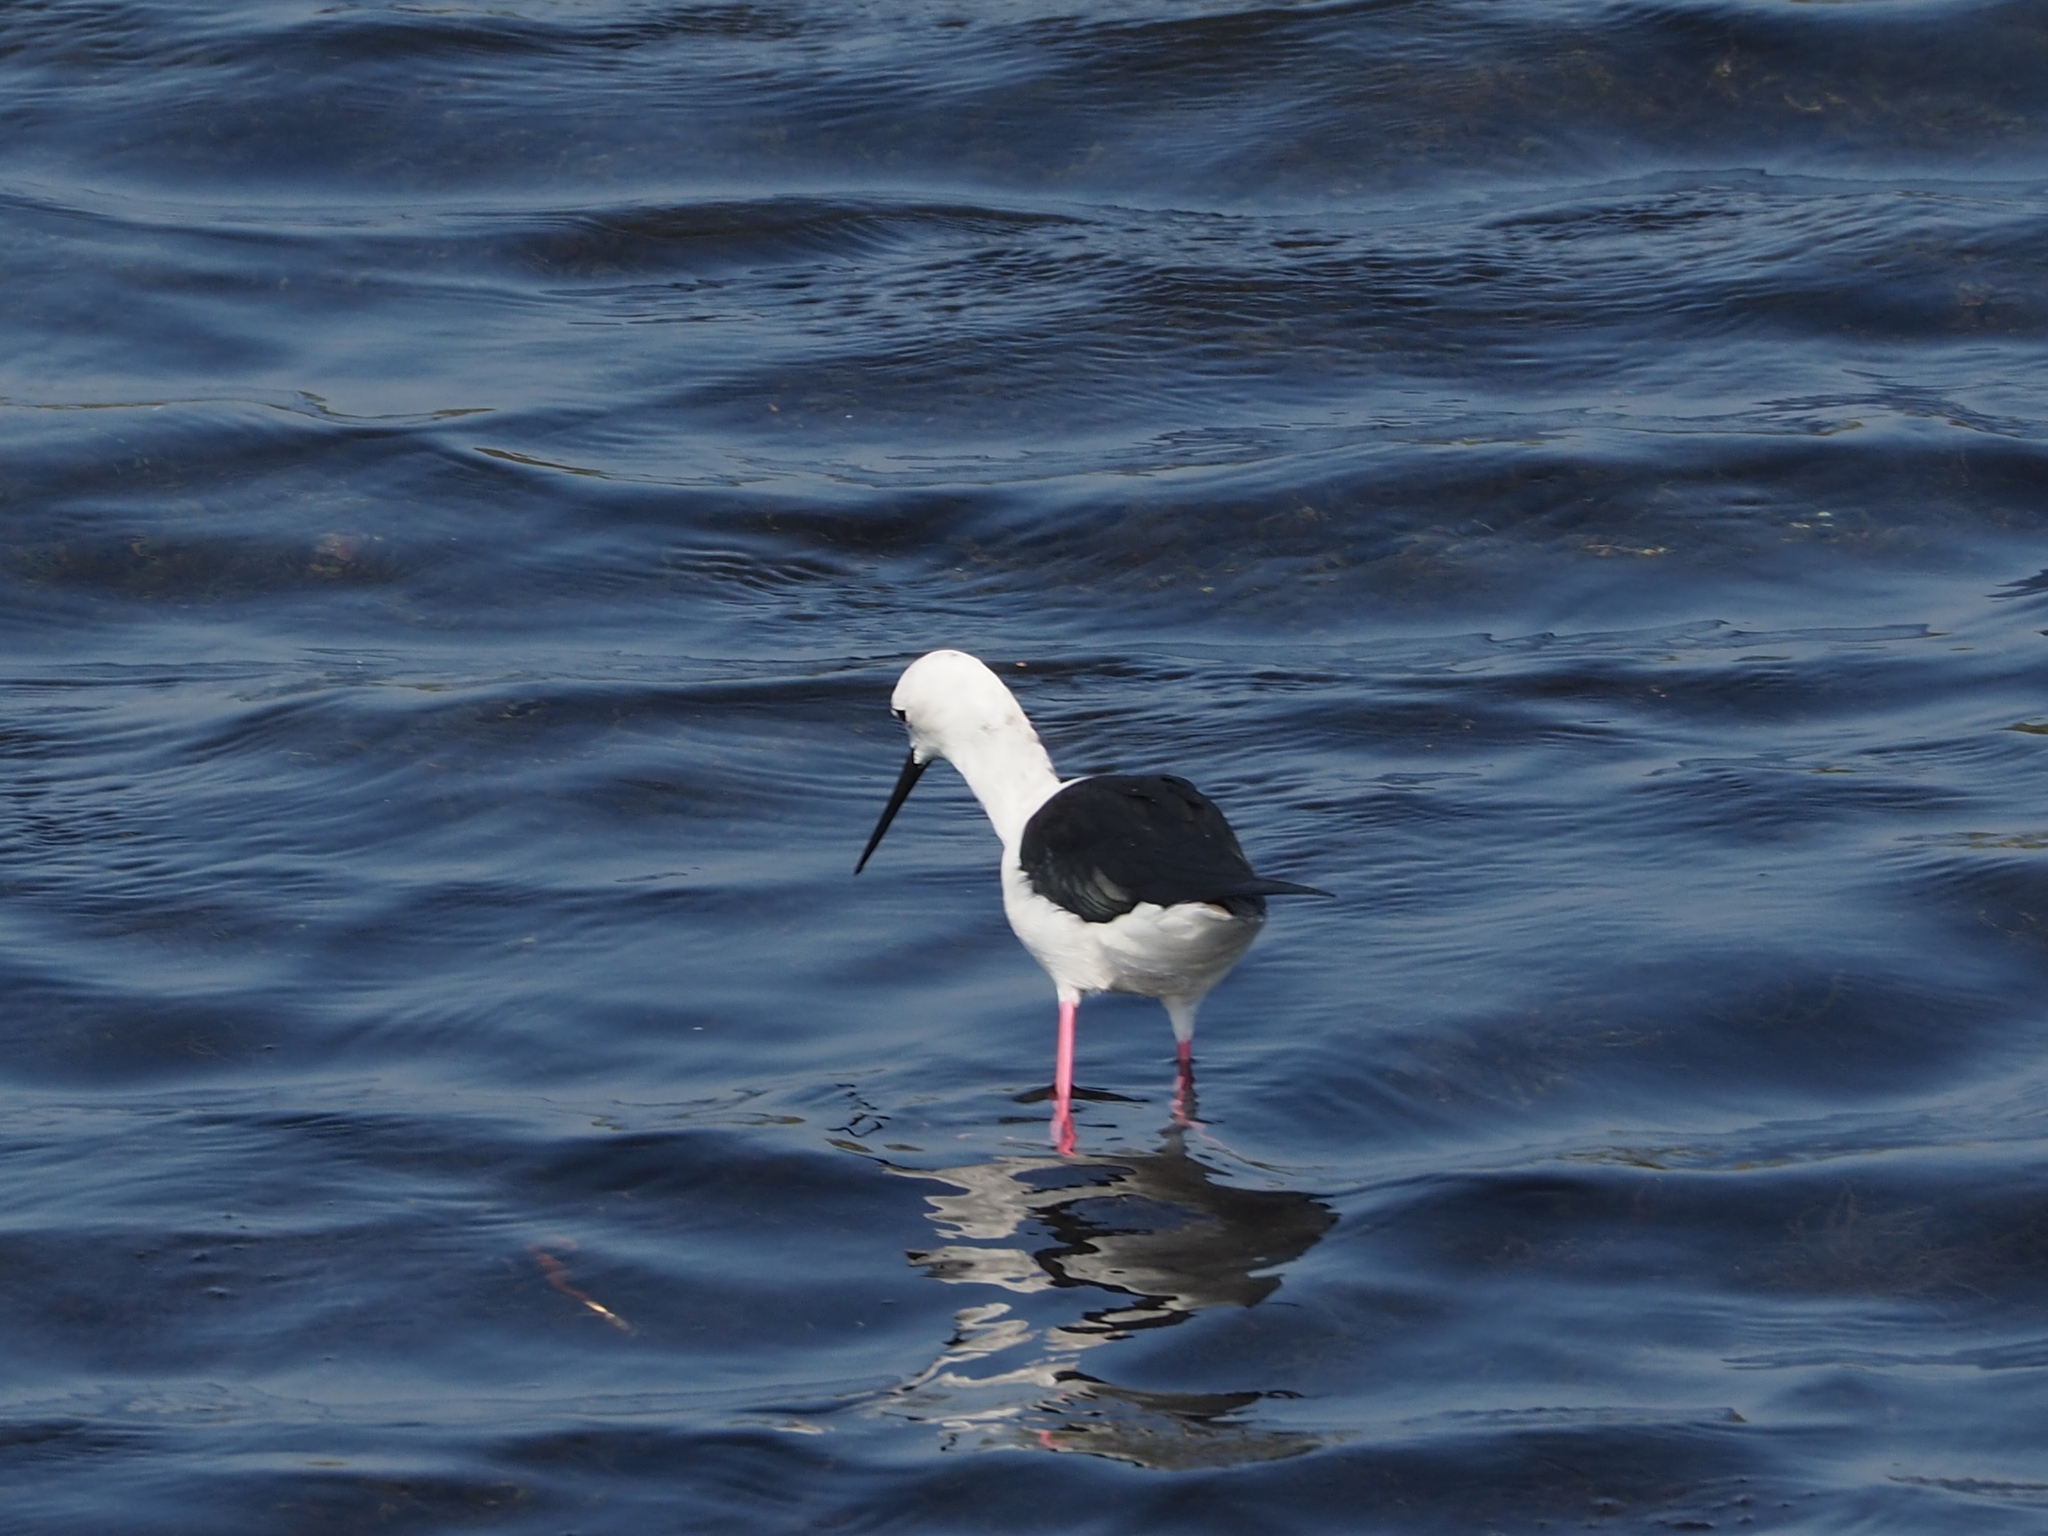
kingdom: Animalia
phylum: Chordata
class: Aves
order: Charadriiformes
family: Recurvirostridae
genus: Himantopus
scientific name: Himantopus himantopus
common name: Black-winged stilt
